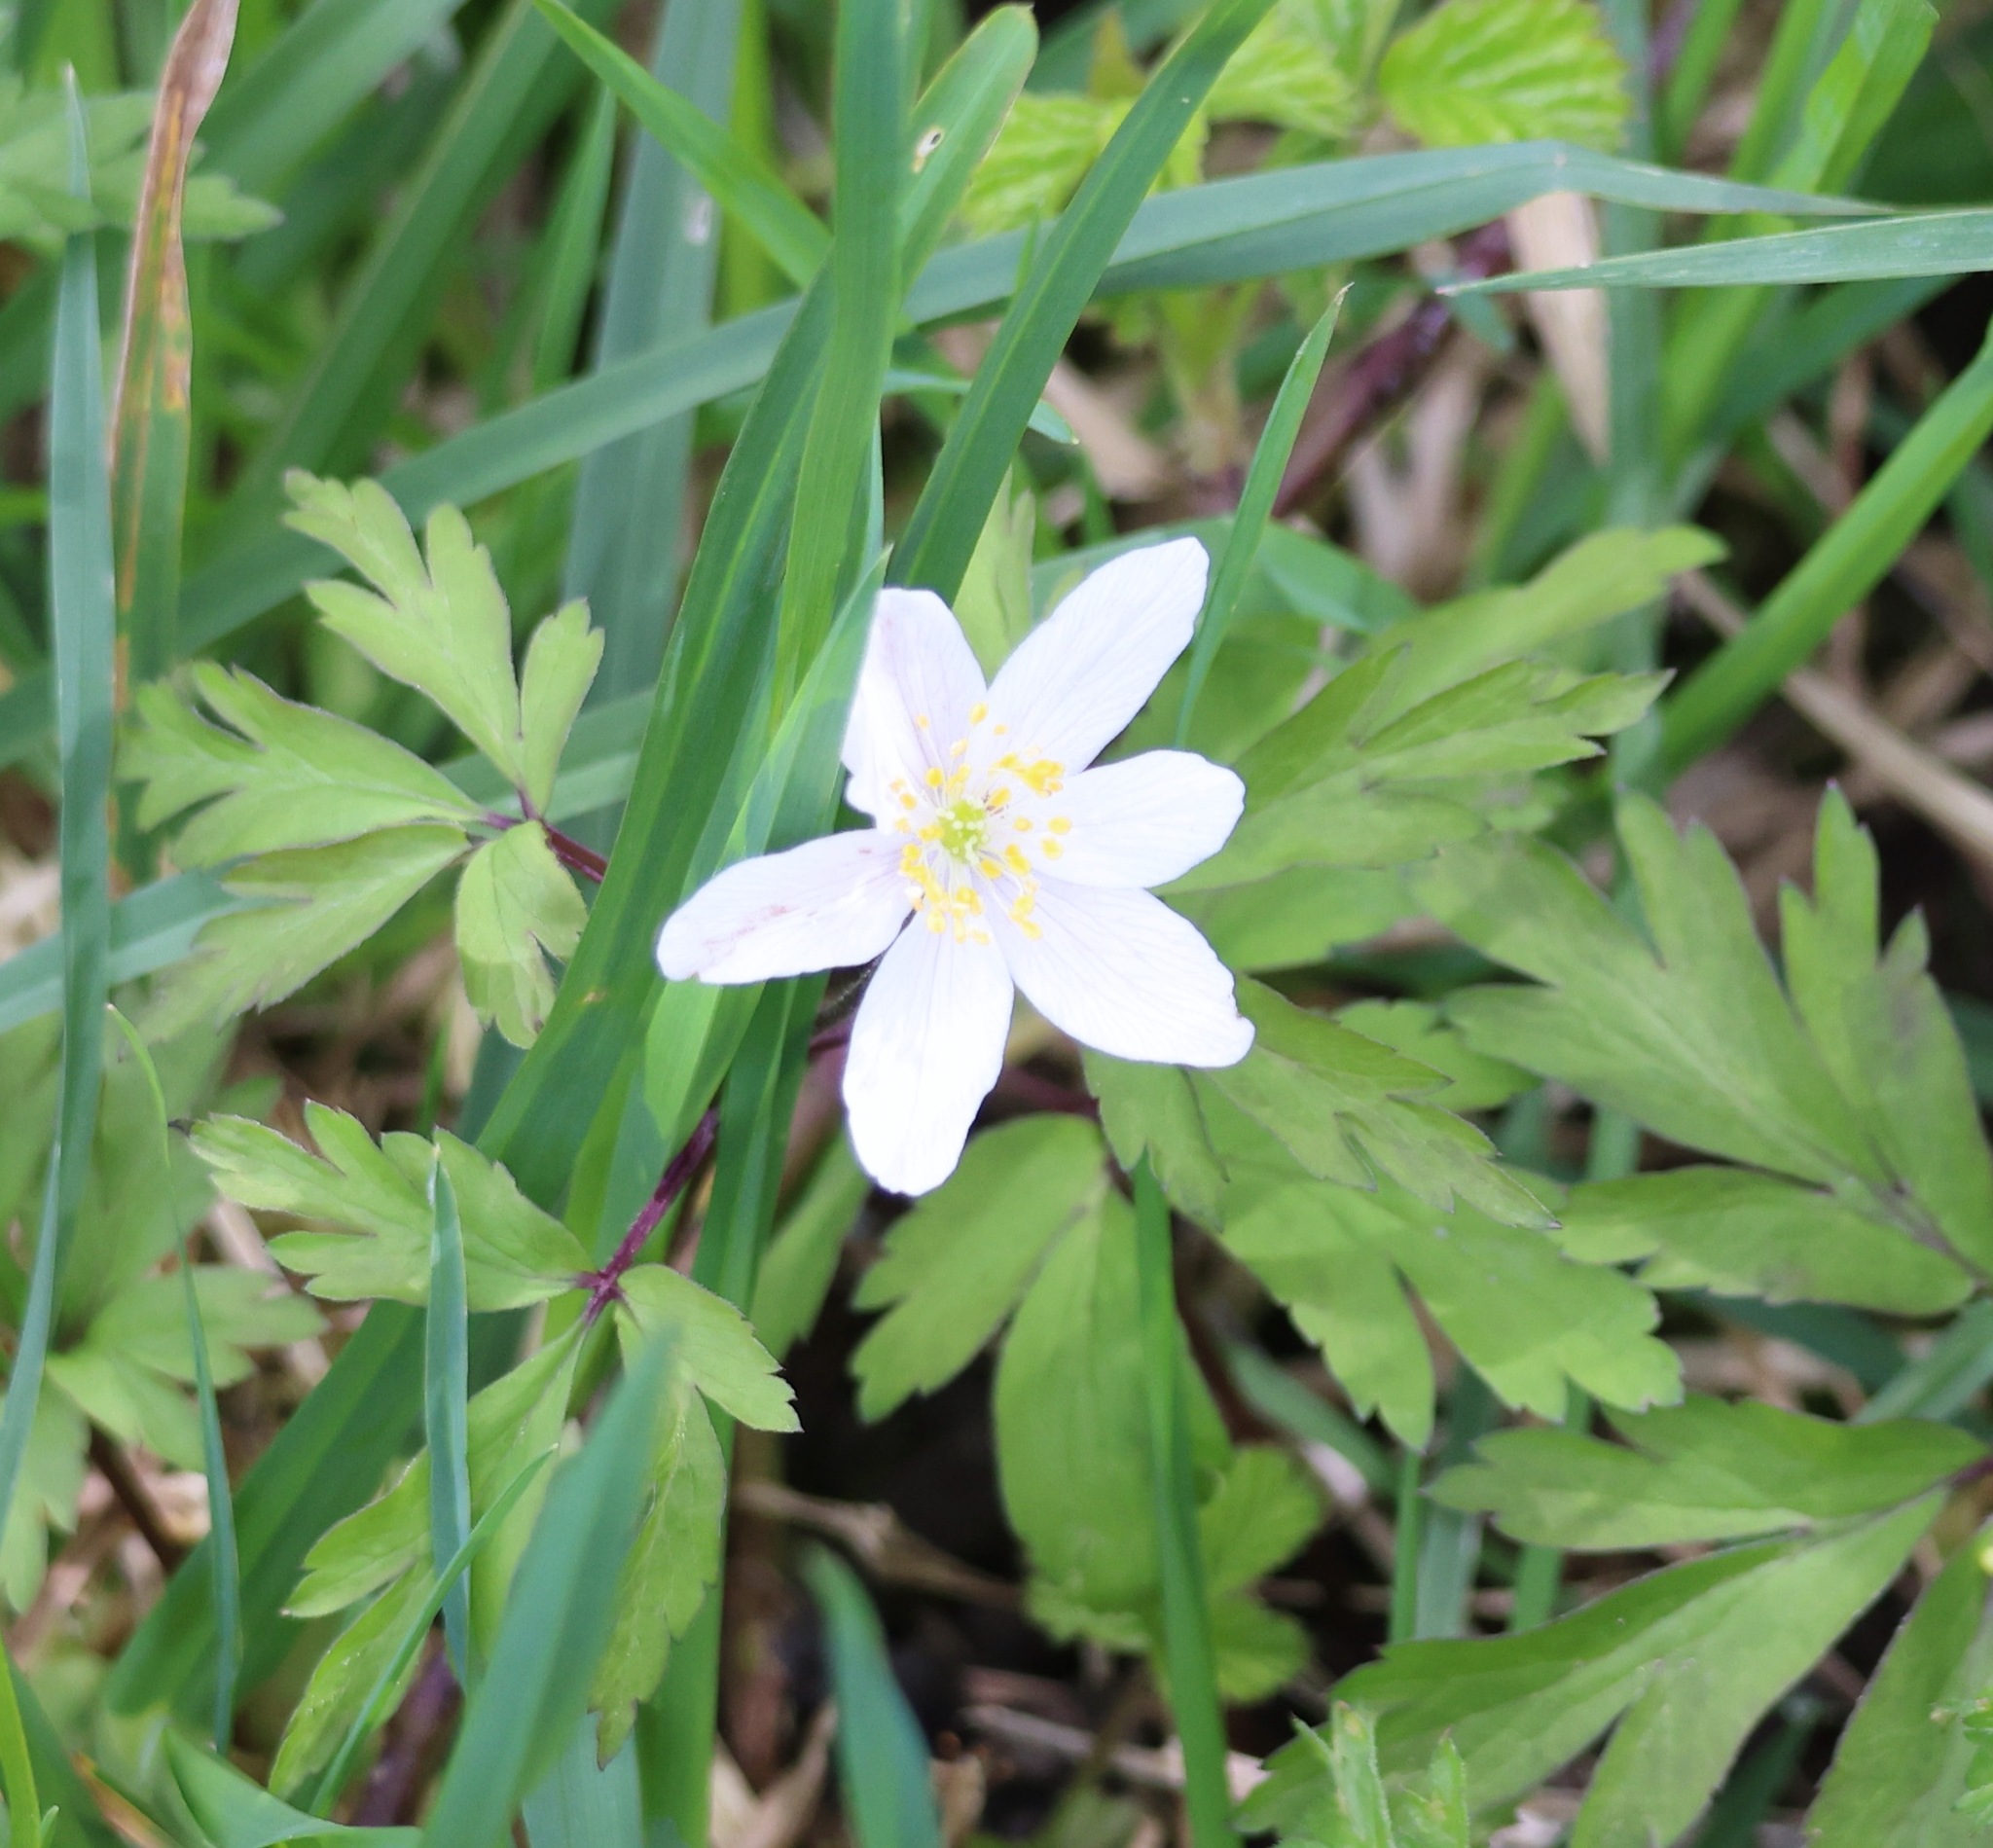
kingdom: Plantae
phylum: Tracheophyta
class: Magnoliopsida
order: Ranunculales
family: Ranunculaceae
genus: Anemone
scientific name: Anemone nemorosa
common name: Wood anemone
